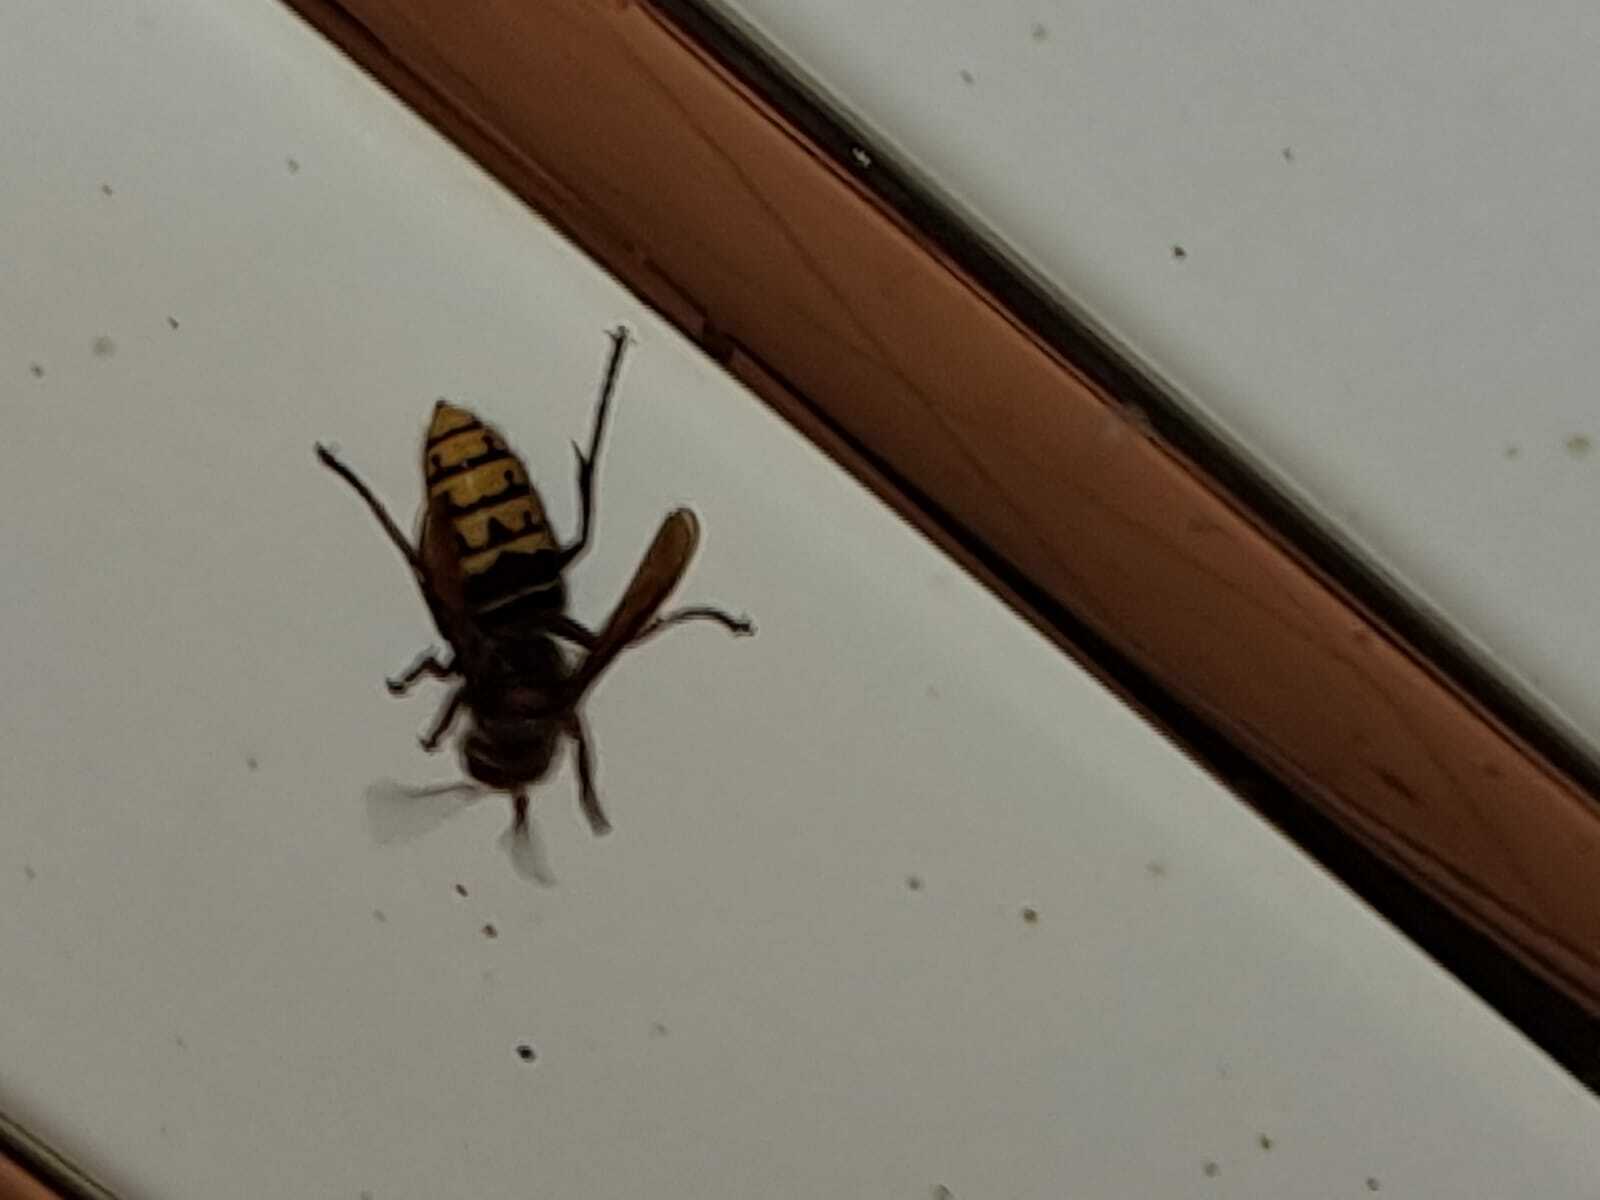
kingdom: Animalia
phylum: Arthropoda
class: Insecta
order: Hymenoptera
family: Vespidae
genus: Vespa
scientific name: Vespa crabro
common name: Hornet
